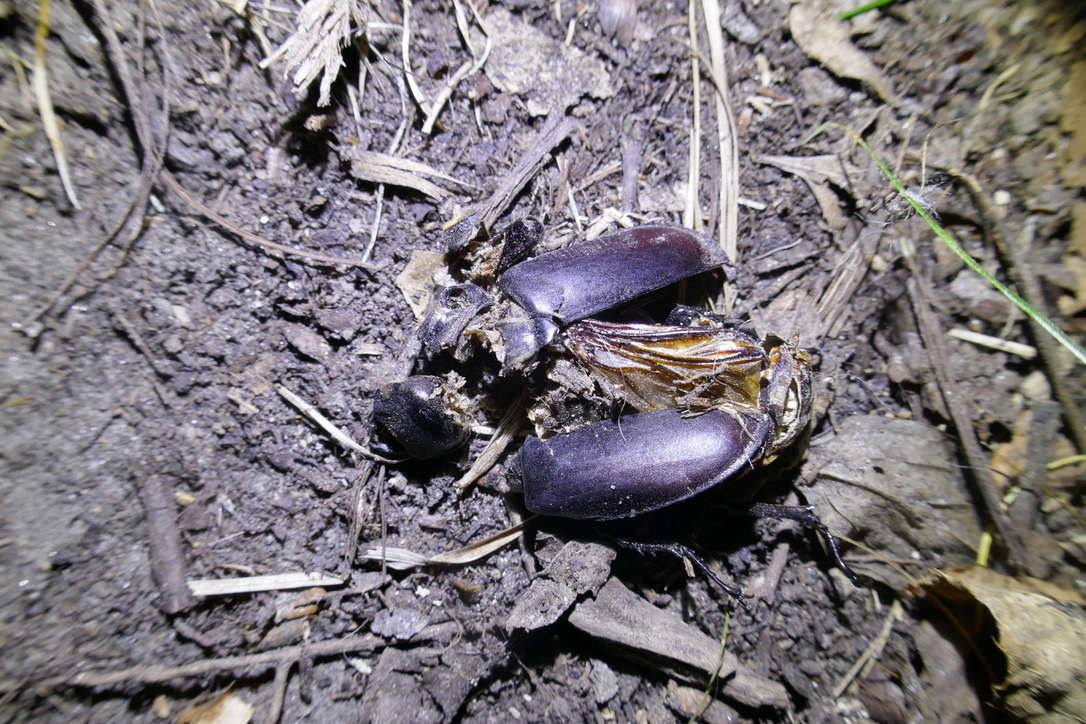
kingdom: Animalia
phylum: Arthropoda
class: Insecta
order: Coleoptera
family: Lucanidae
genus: Lucanus
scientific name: Lucanus cervus
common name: Stag beetle
